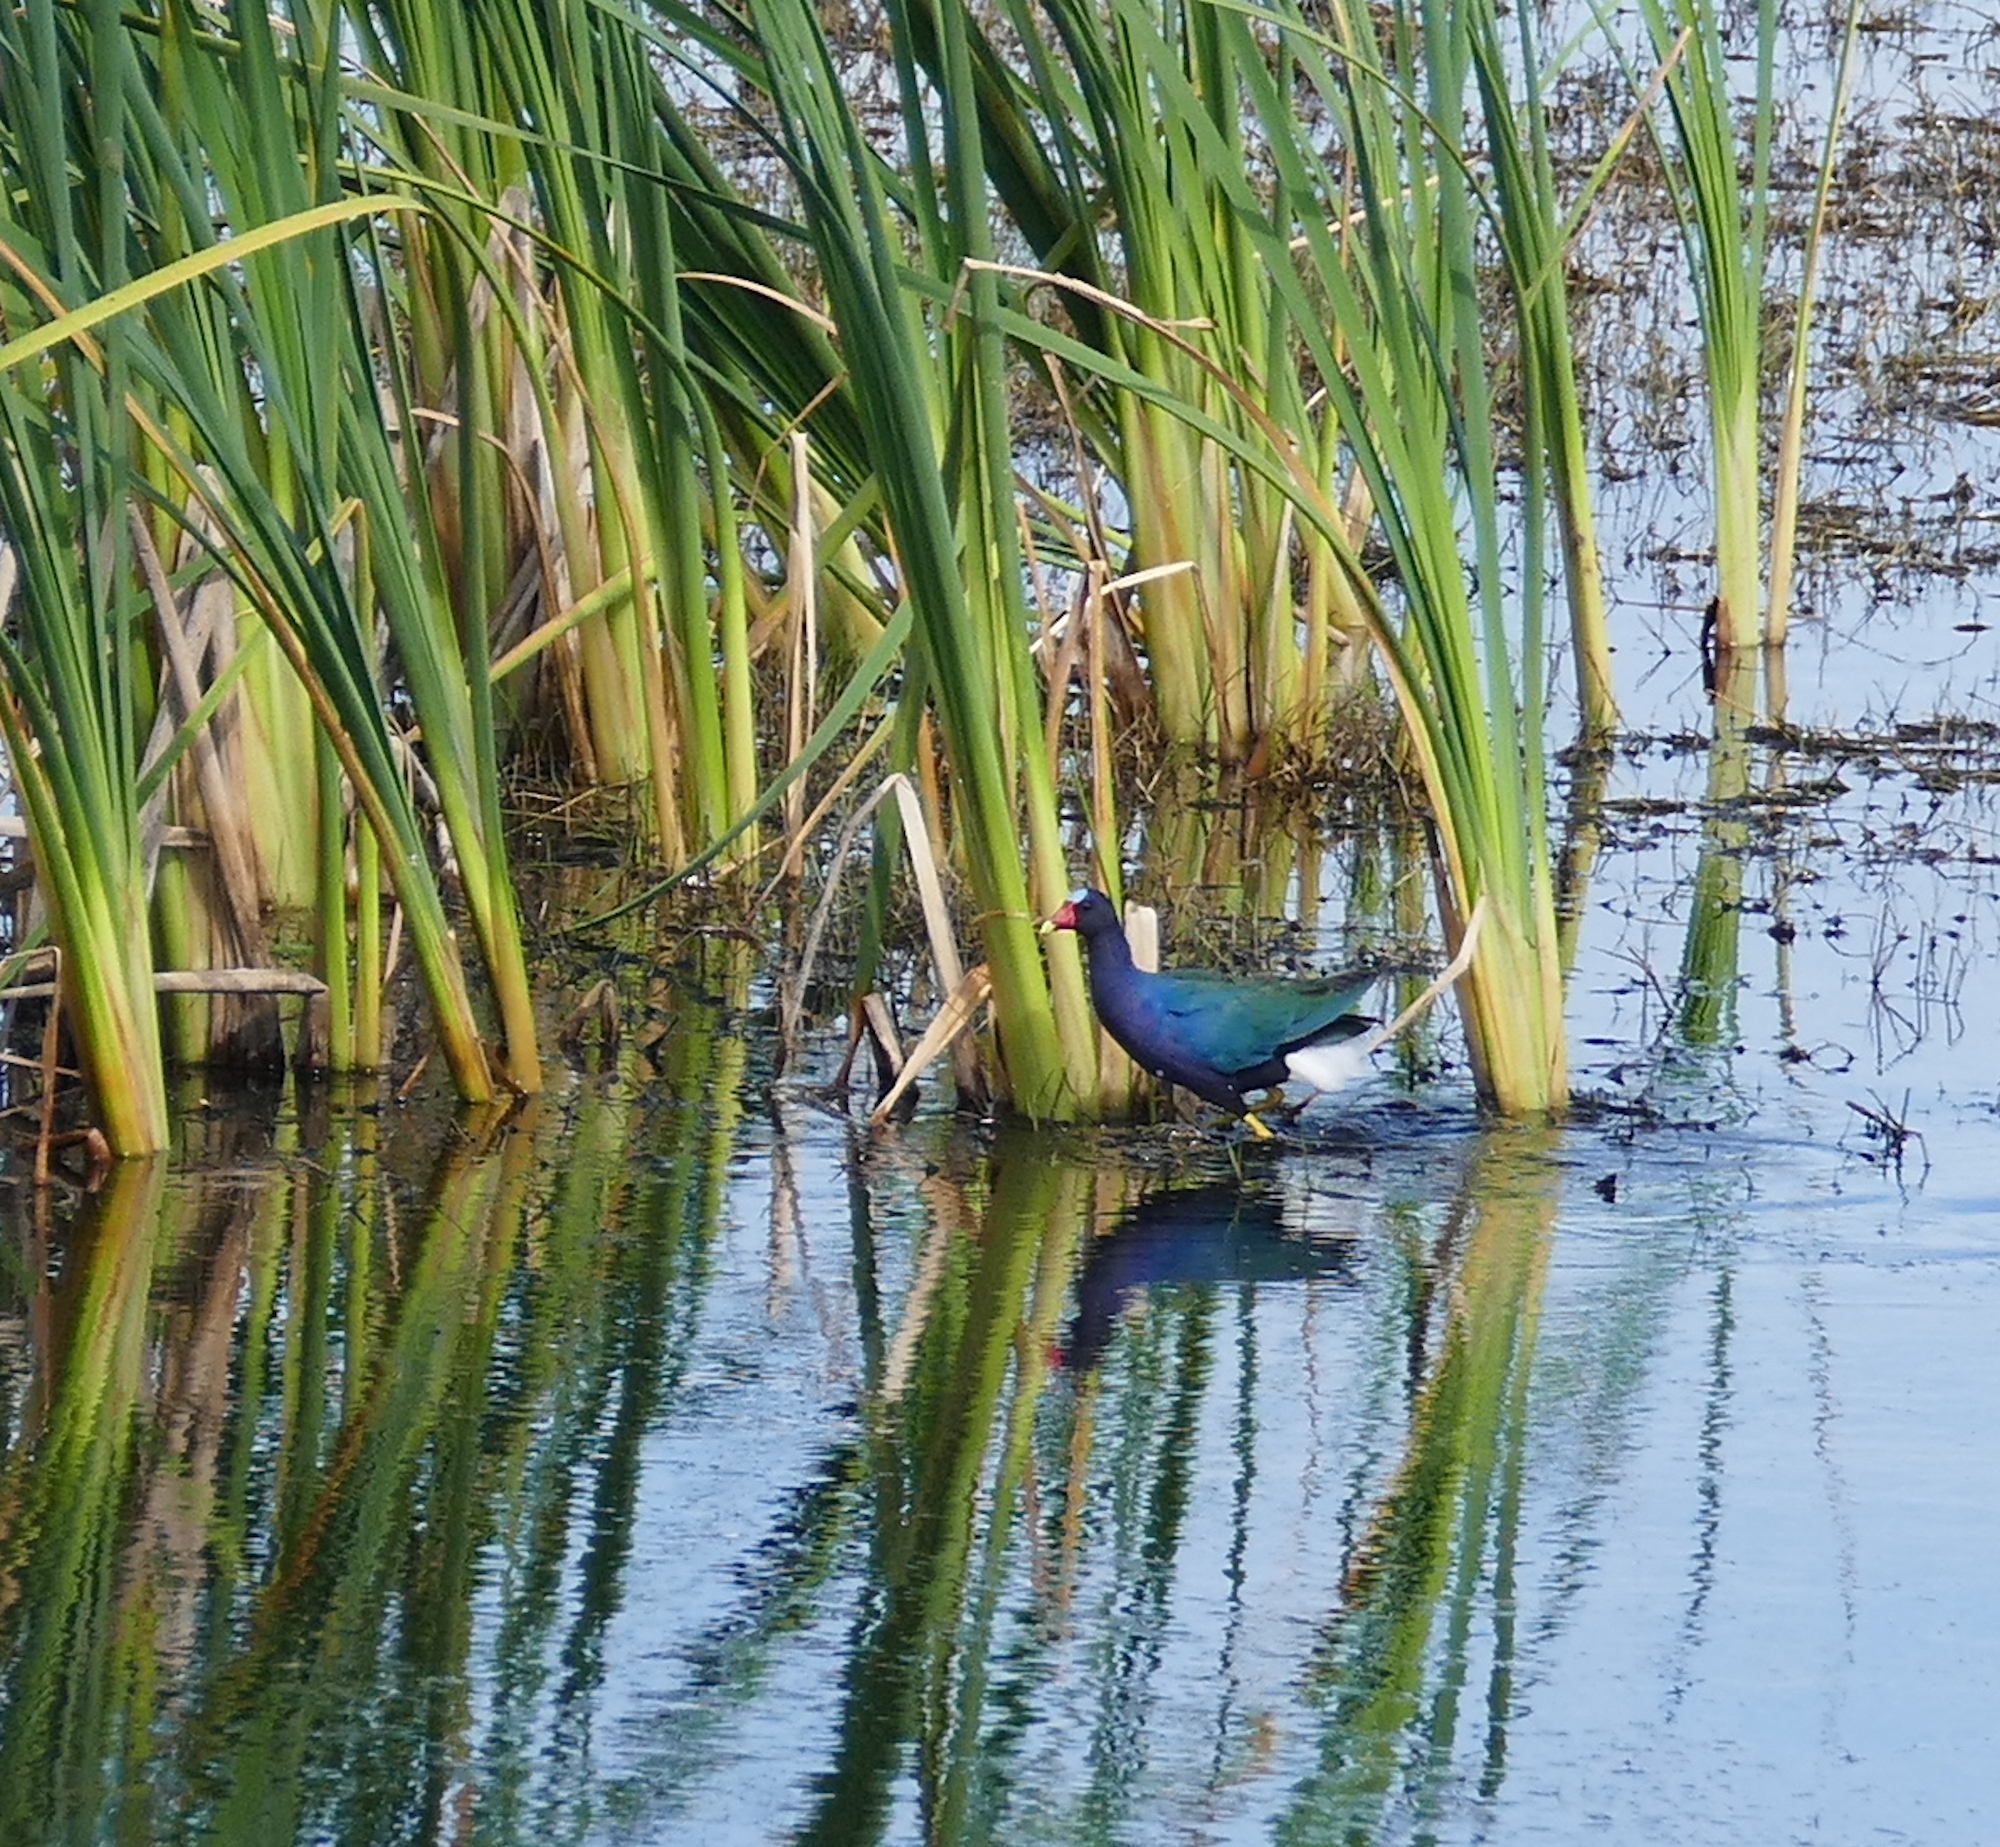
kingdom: Animalia
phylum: Chordata
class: Aves
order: Gruiformes
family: Rallidae
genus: Porphyrio
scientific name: Porphyrio martinica
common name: Purple gallinule
